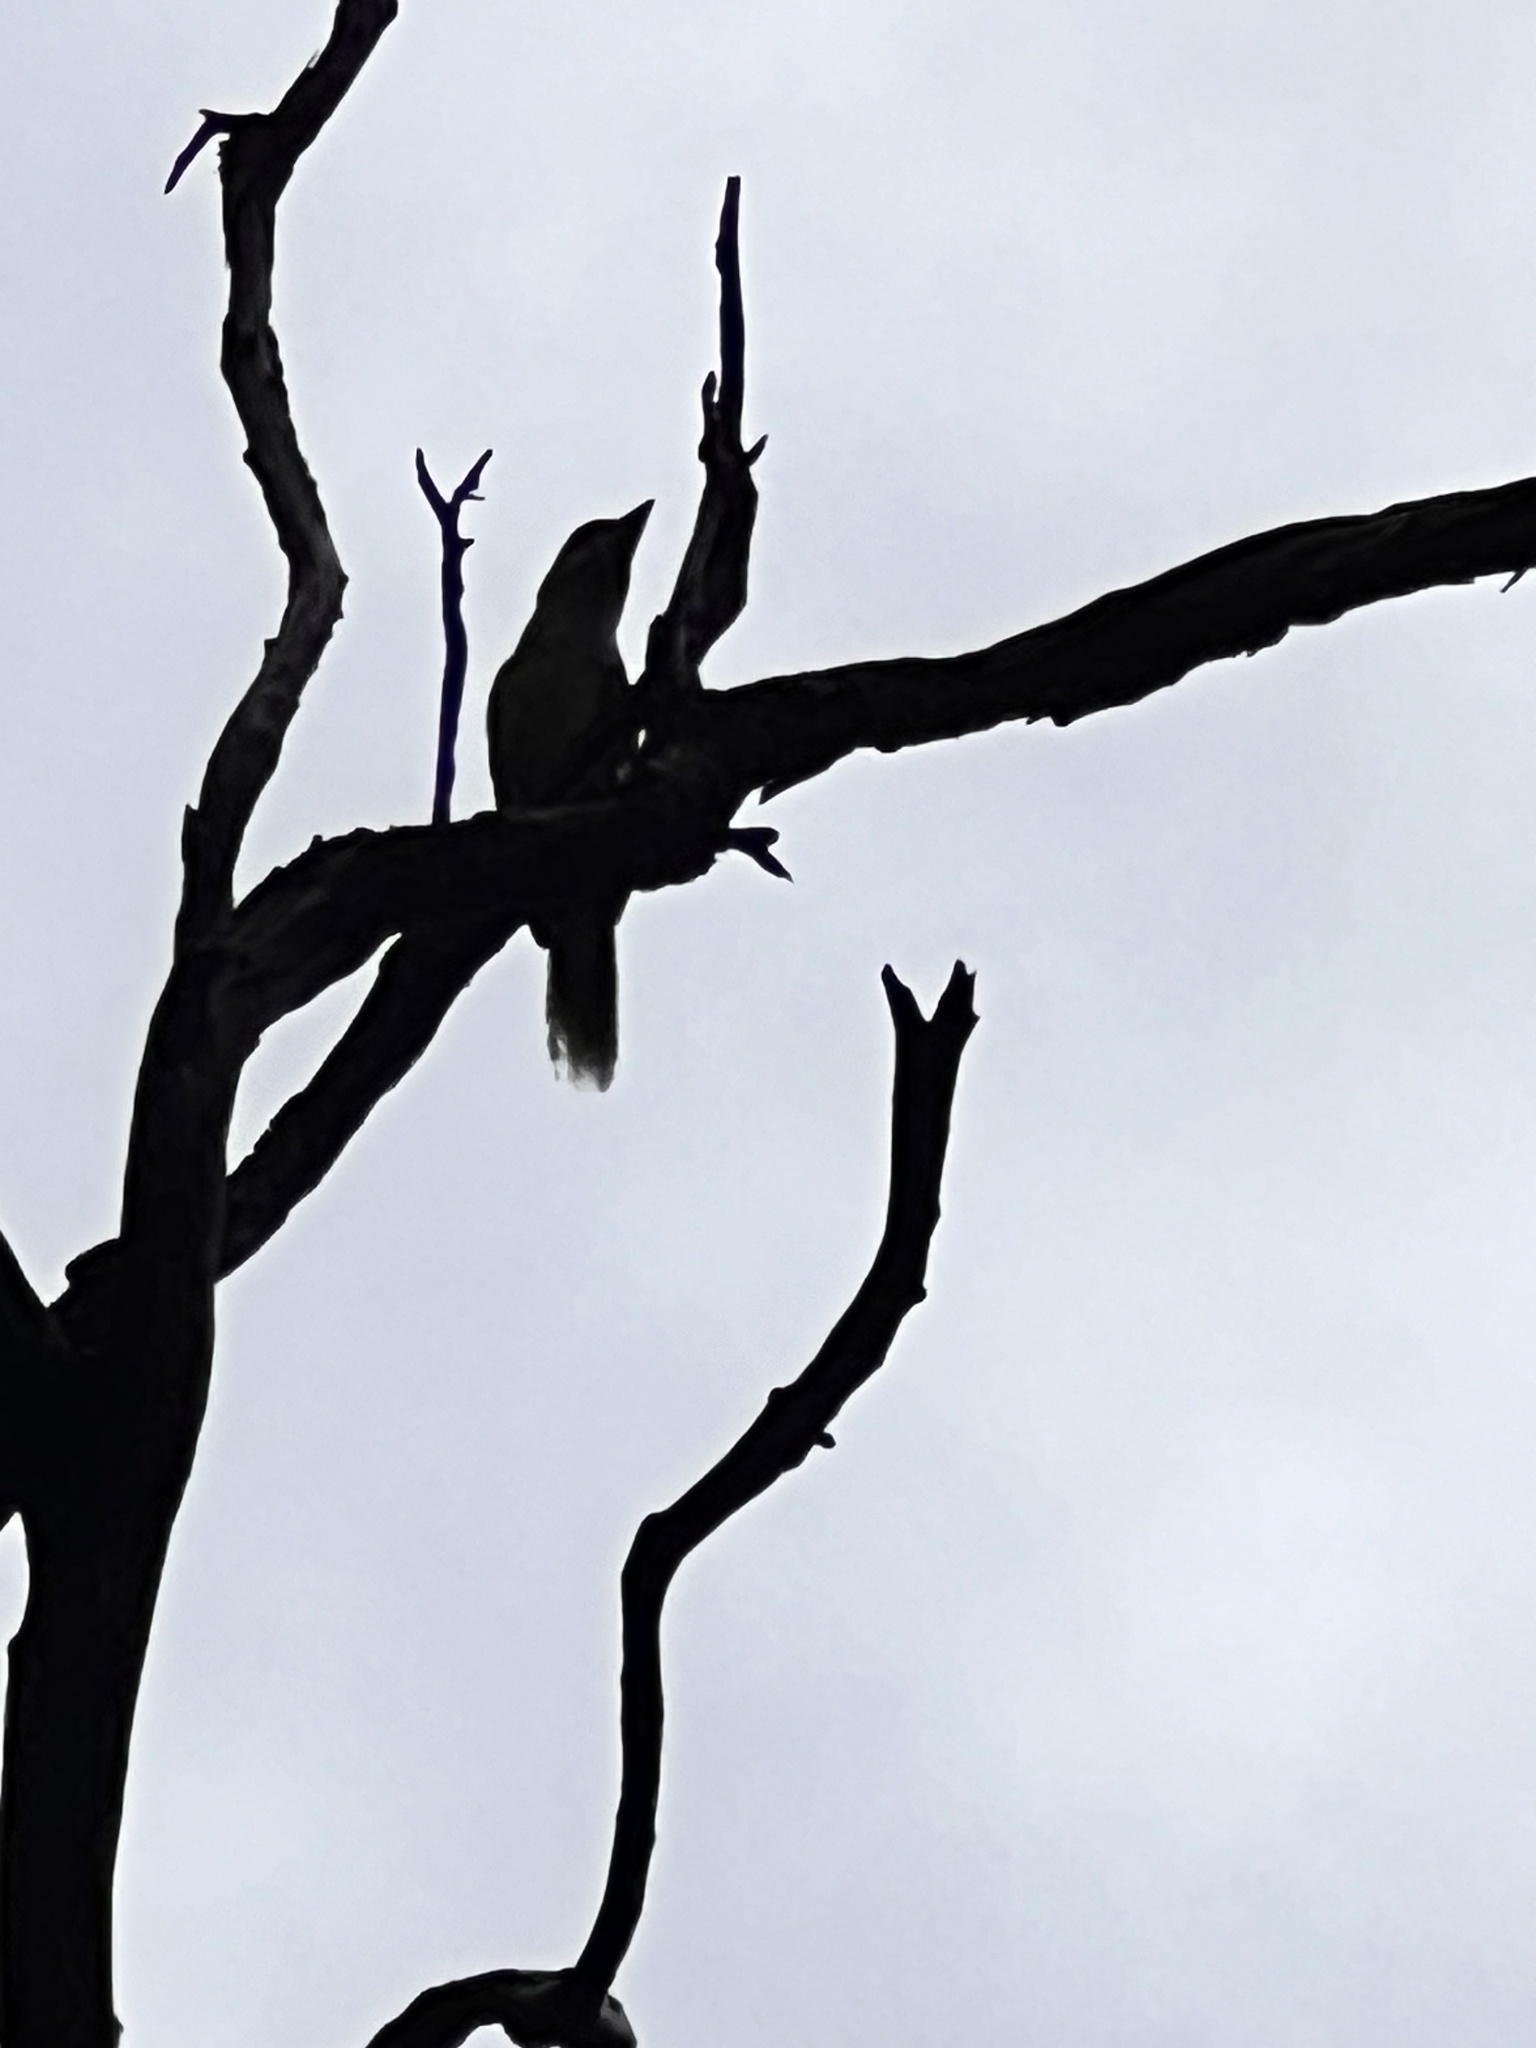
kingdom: Animalia
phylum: Chordata
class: Aves
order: Passeriformes
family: Cracticidae
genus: Cracticus
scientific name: Cracticus torquatus
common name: Grey butcherbird
